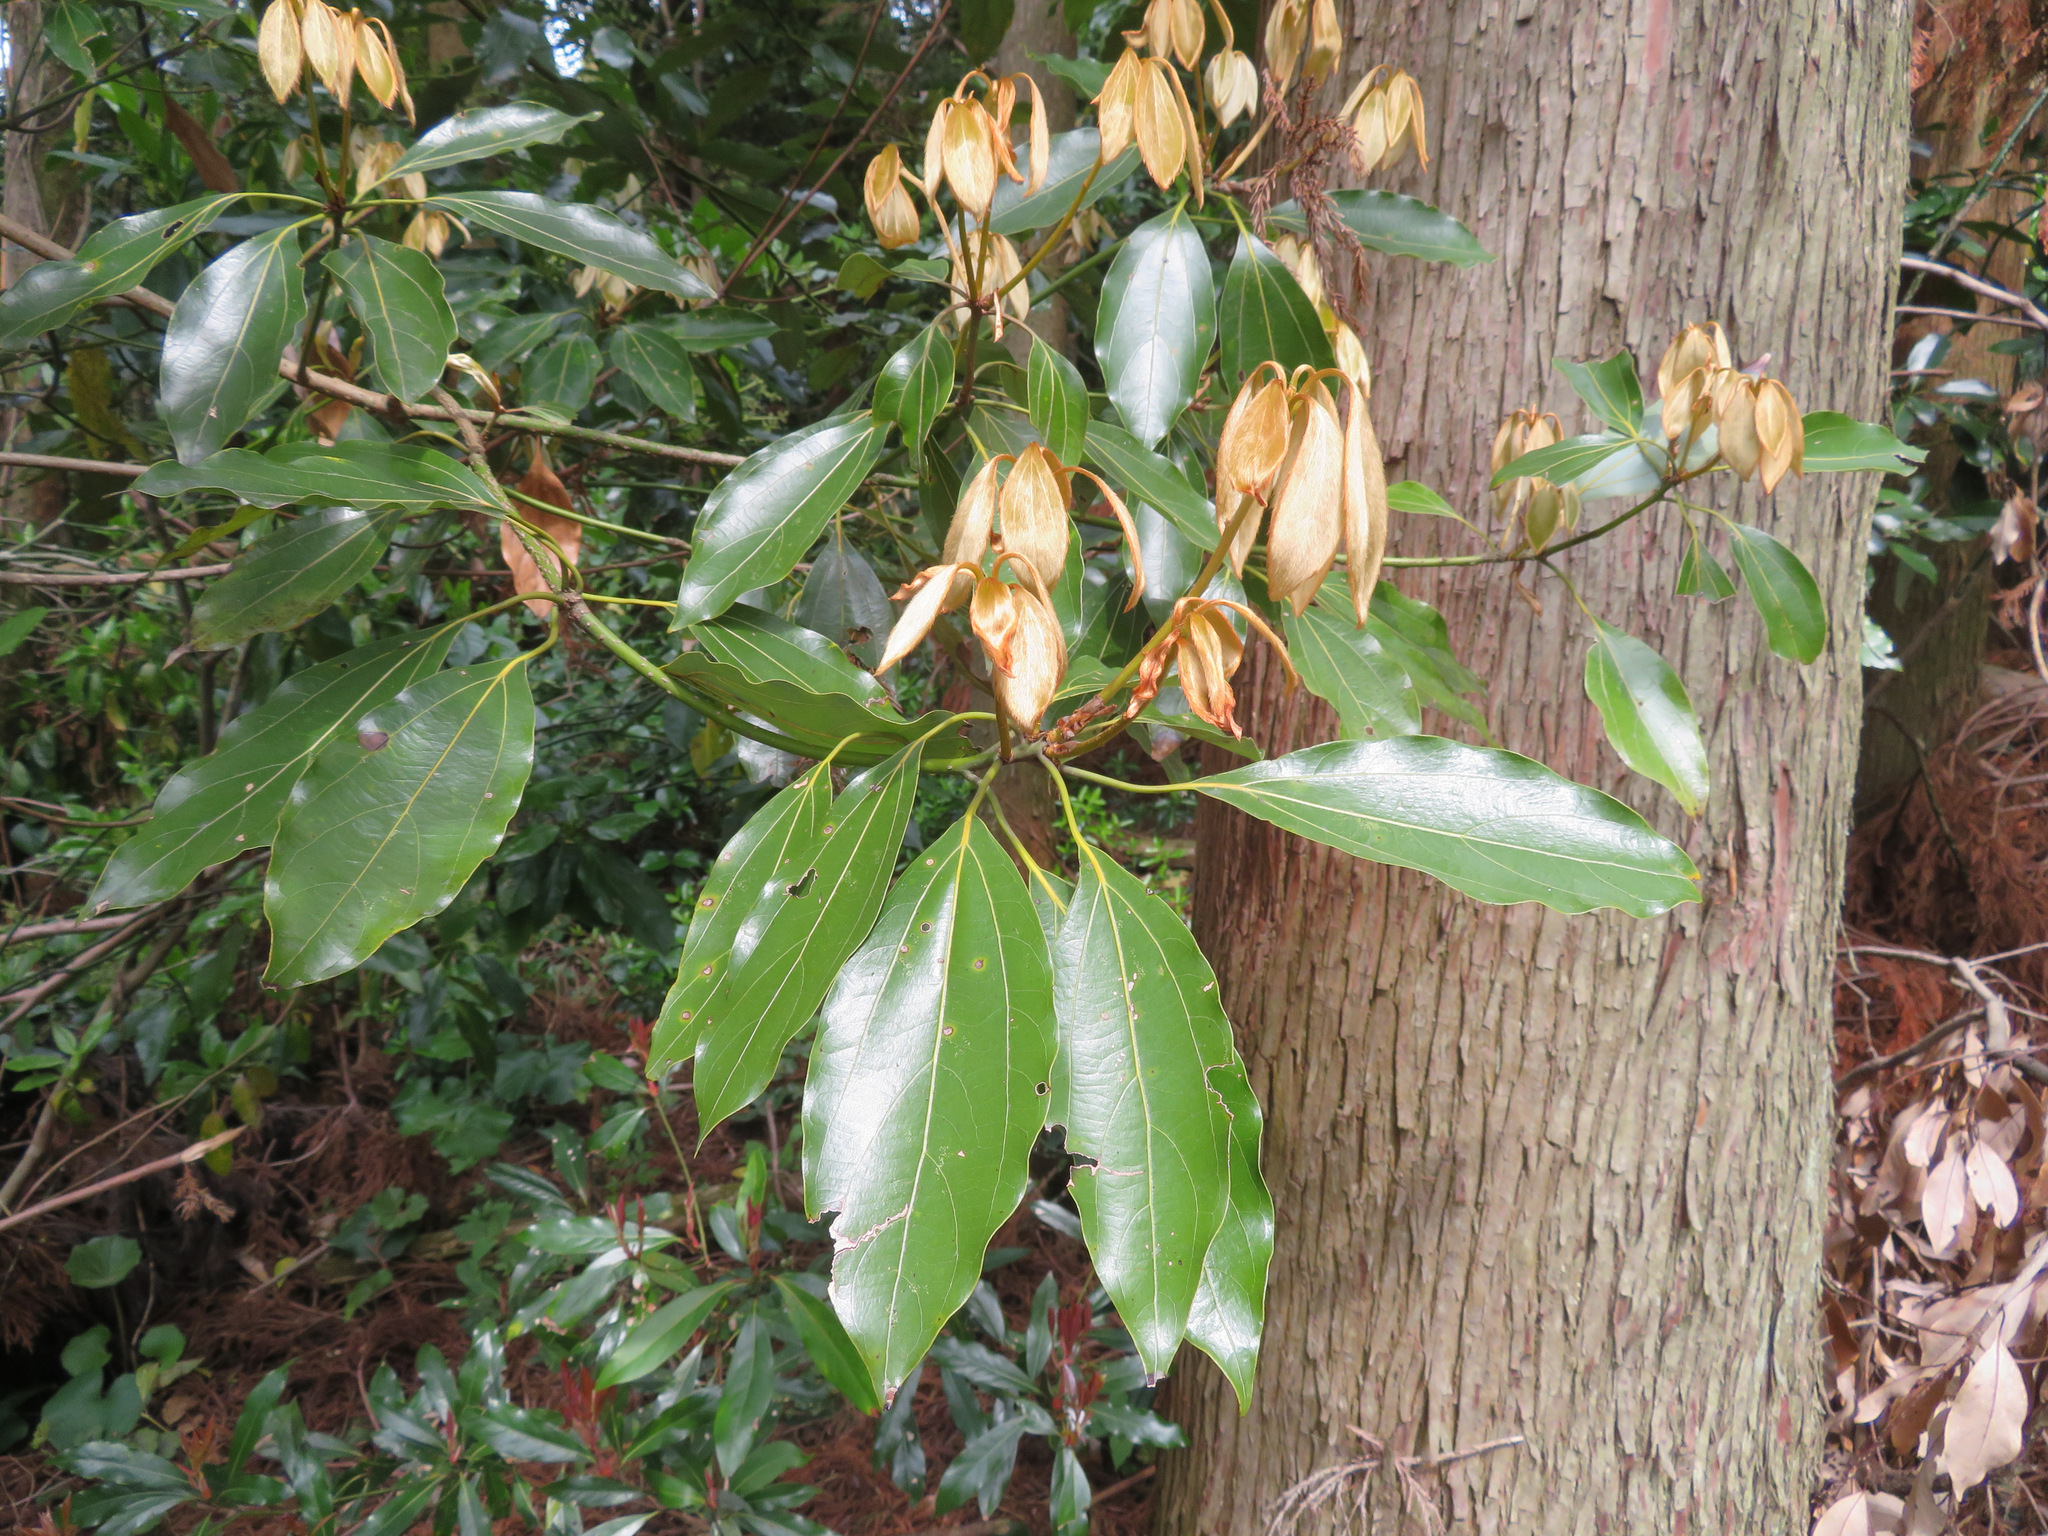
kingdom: Plantae
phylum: Tracheophyta
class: Magnoliopsida
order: Laurales
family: Lauraceae
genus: Neolitsea
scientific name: Neolitsea sericea
